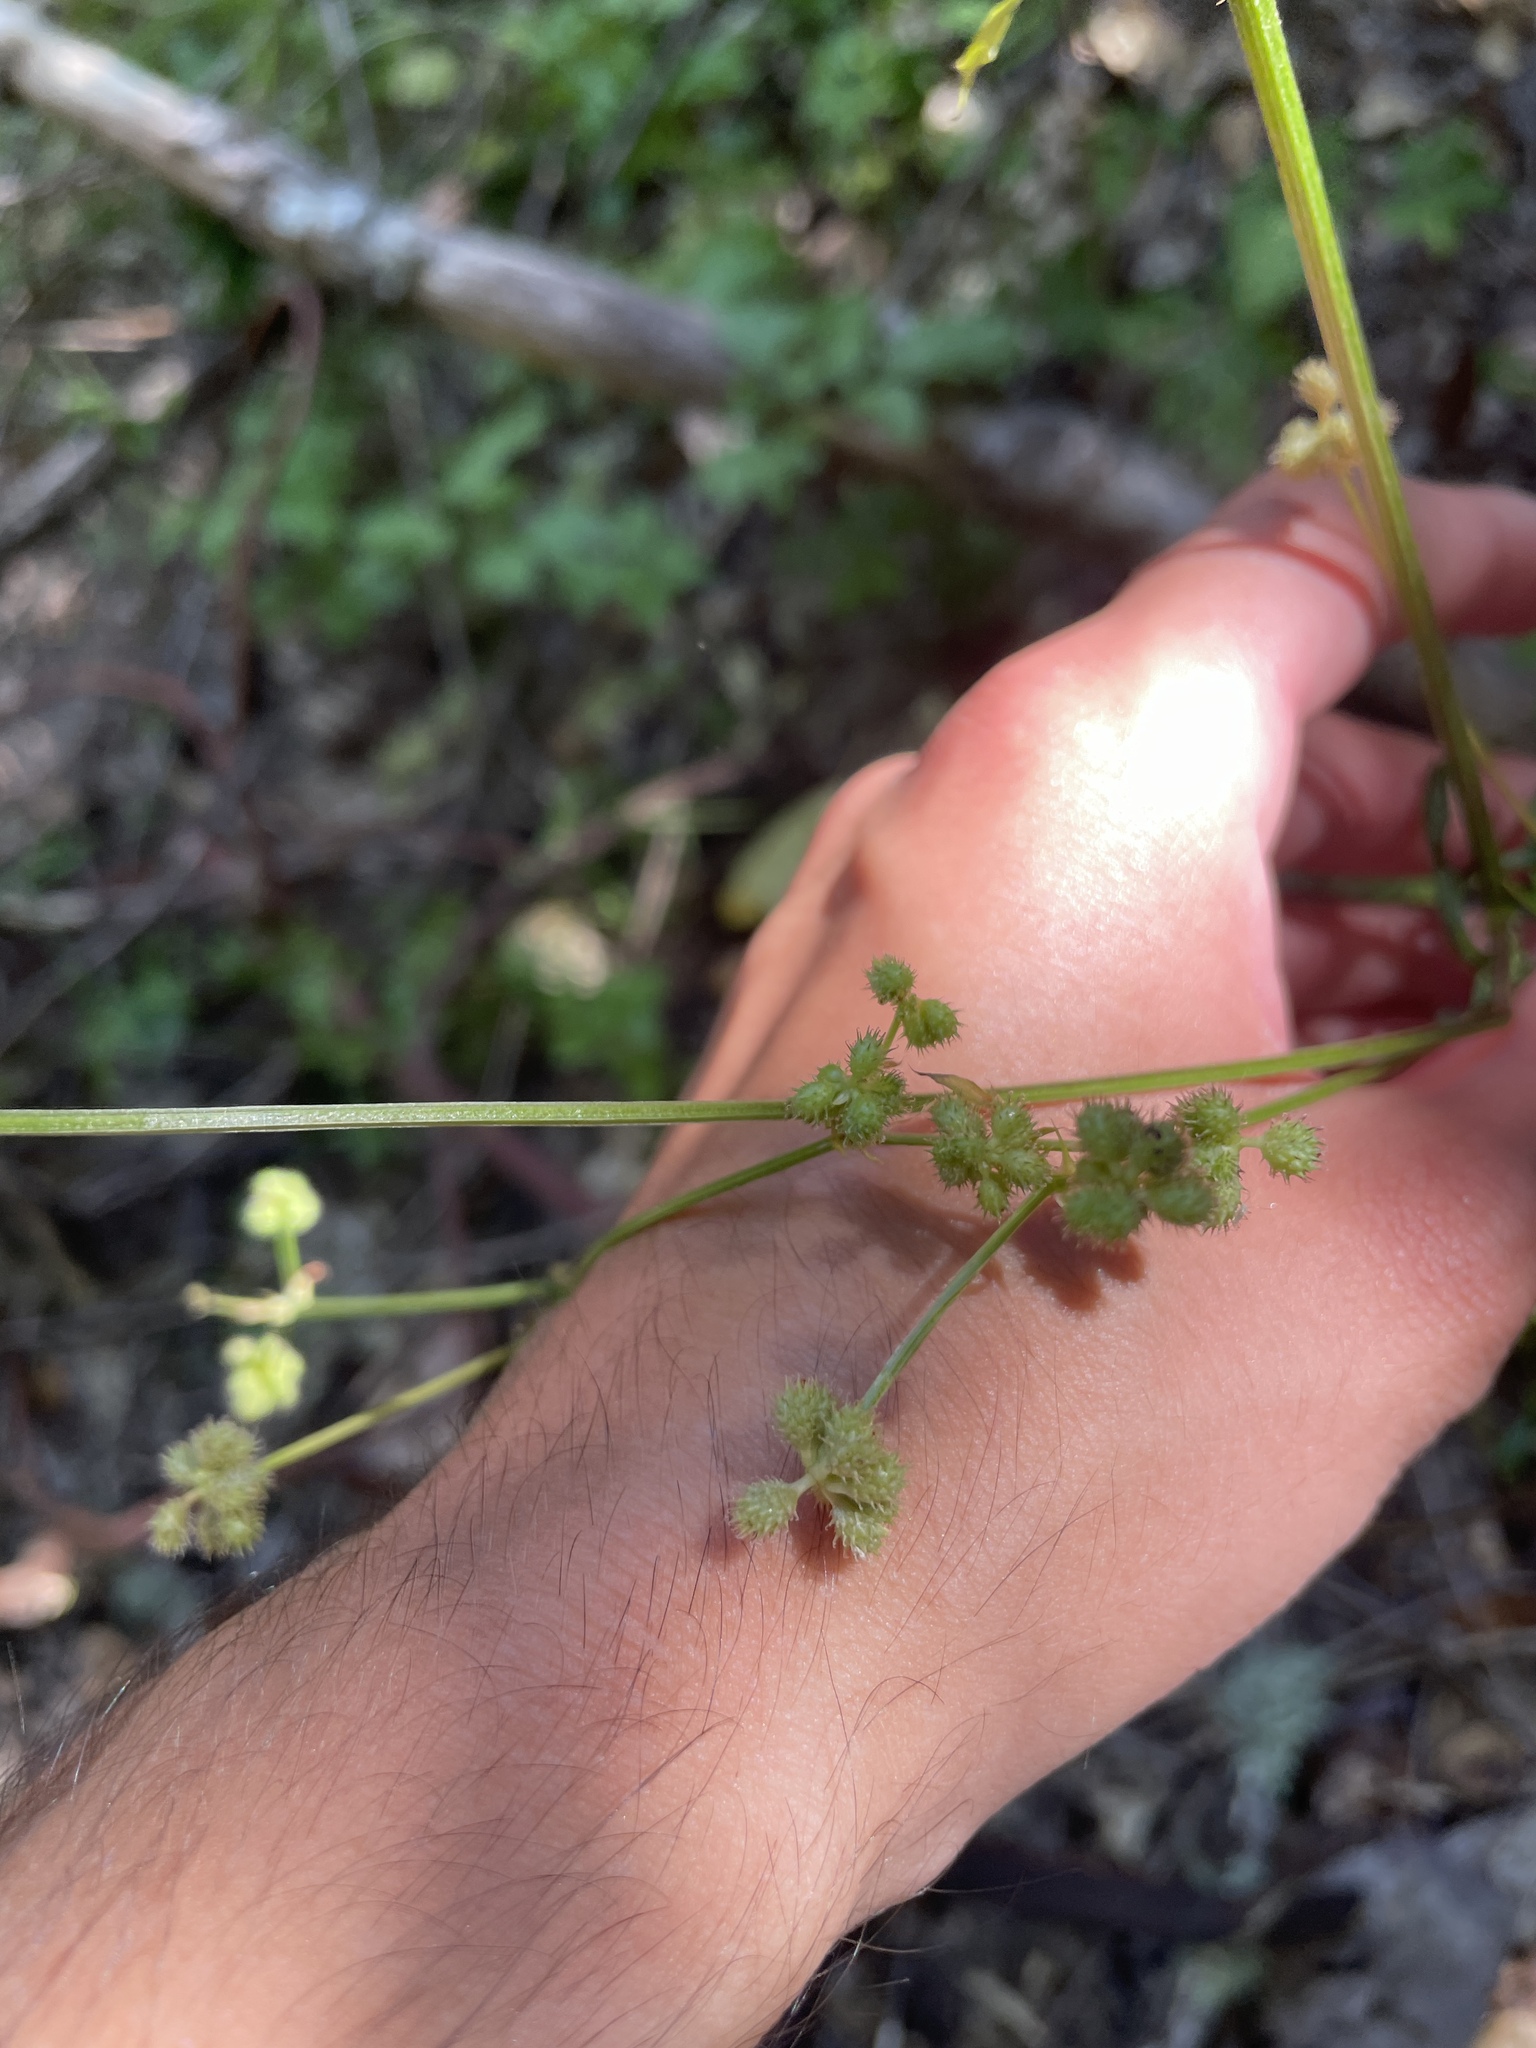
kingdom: Plantae
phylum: Tracheophyta
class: Magnoliopsida
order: Apiales
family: Apiaceae
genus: Sanicula
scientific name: Sanicula crassicaulis
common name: Western snakeroot
